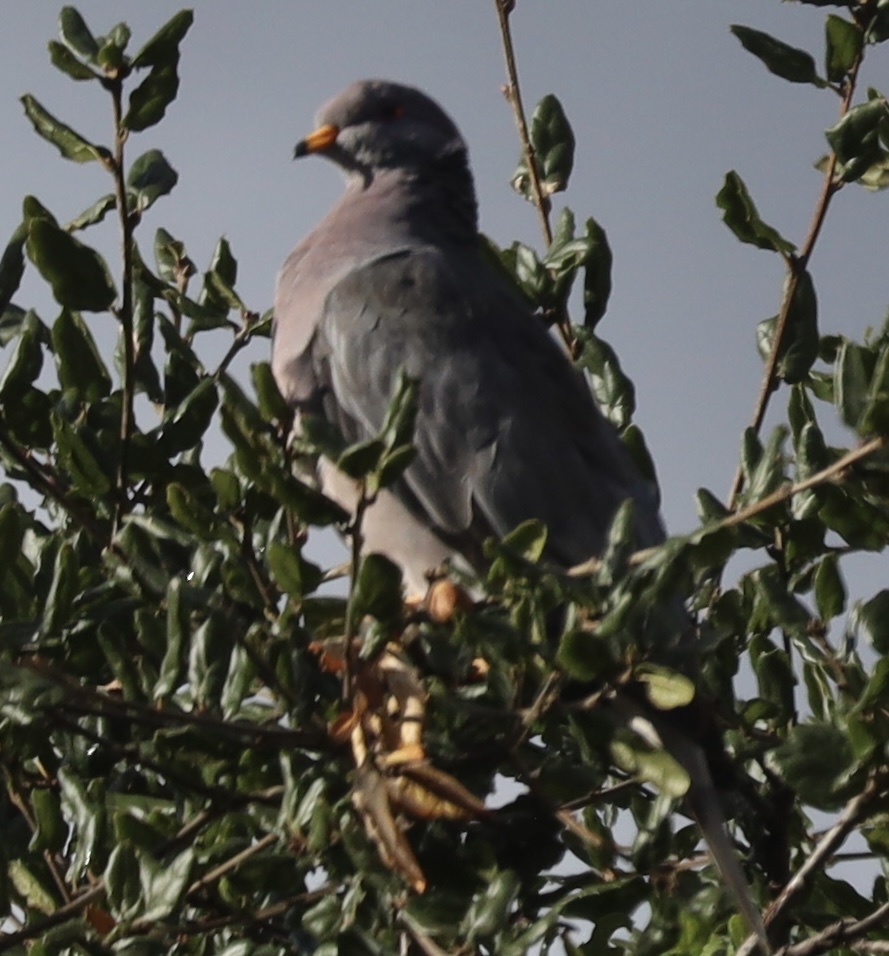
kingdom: Animalia
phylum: Chordata
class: Aves
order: Columbiformes
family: Columbidae
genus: Patagioenas
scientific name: Patagioenas fasciata
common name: Band-tailed pigeon
